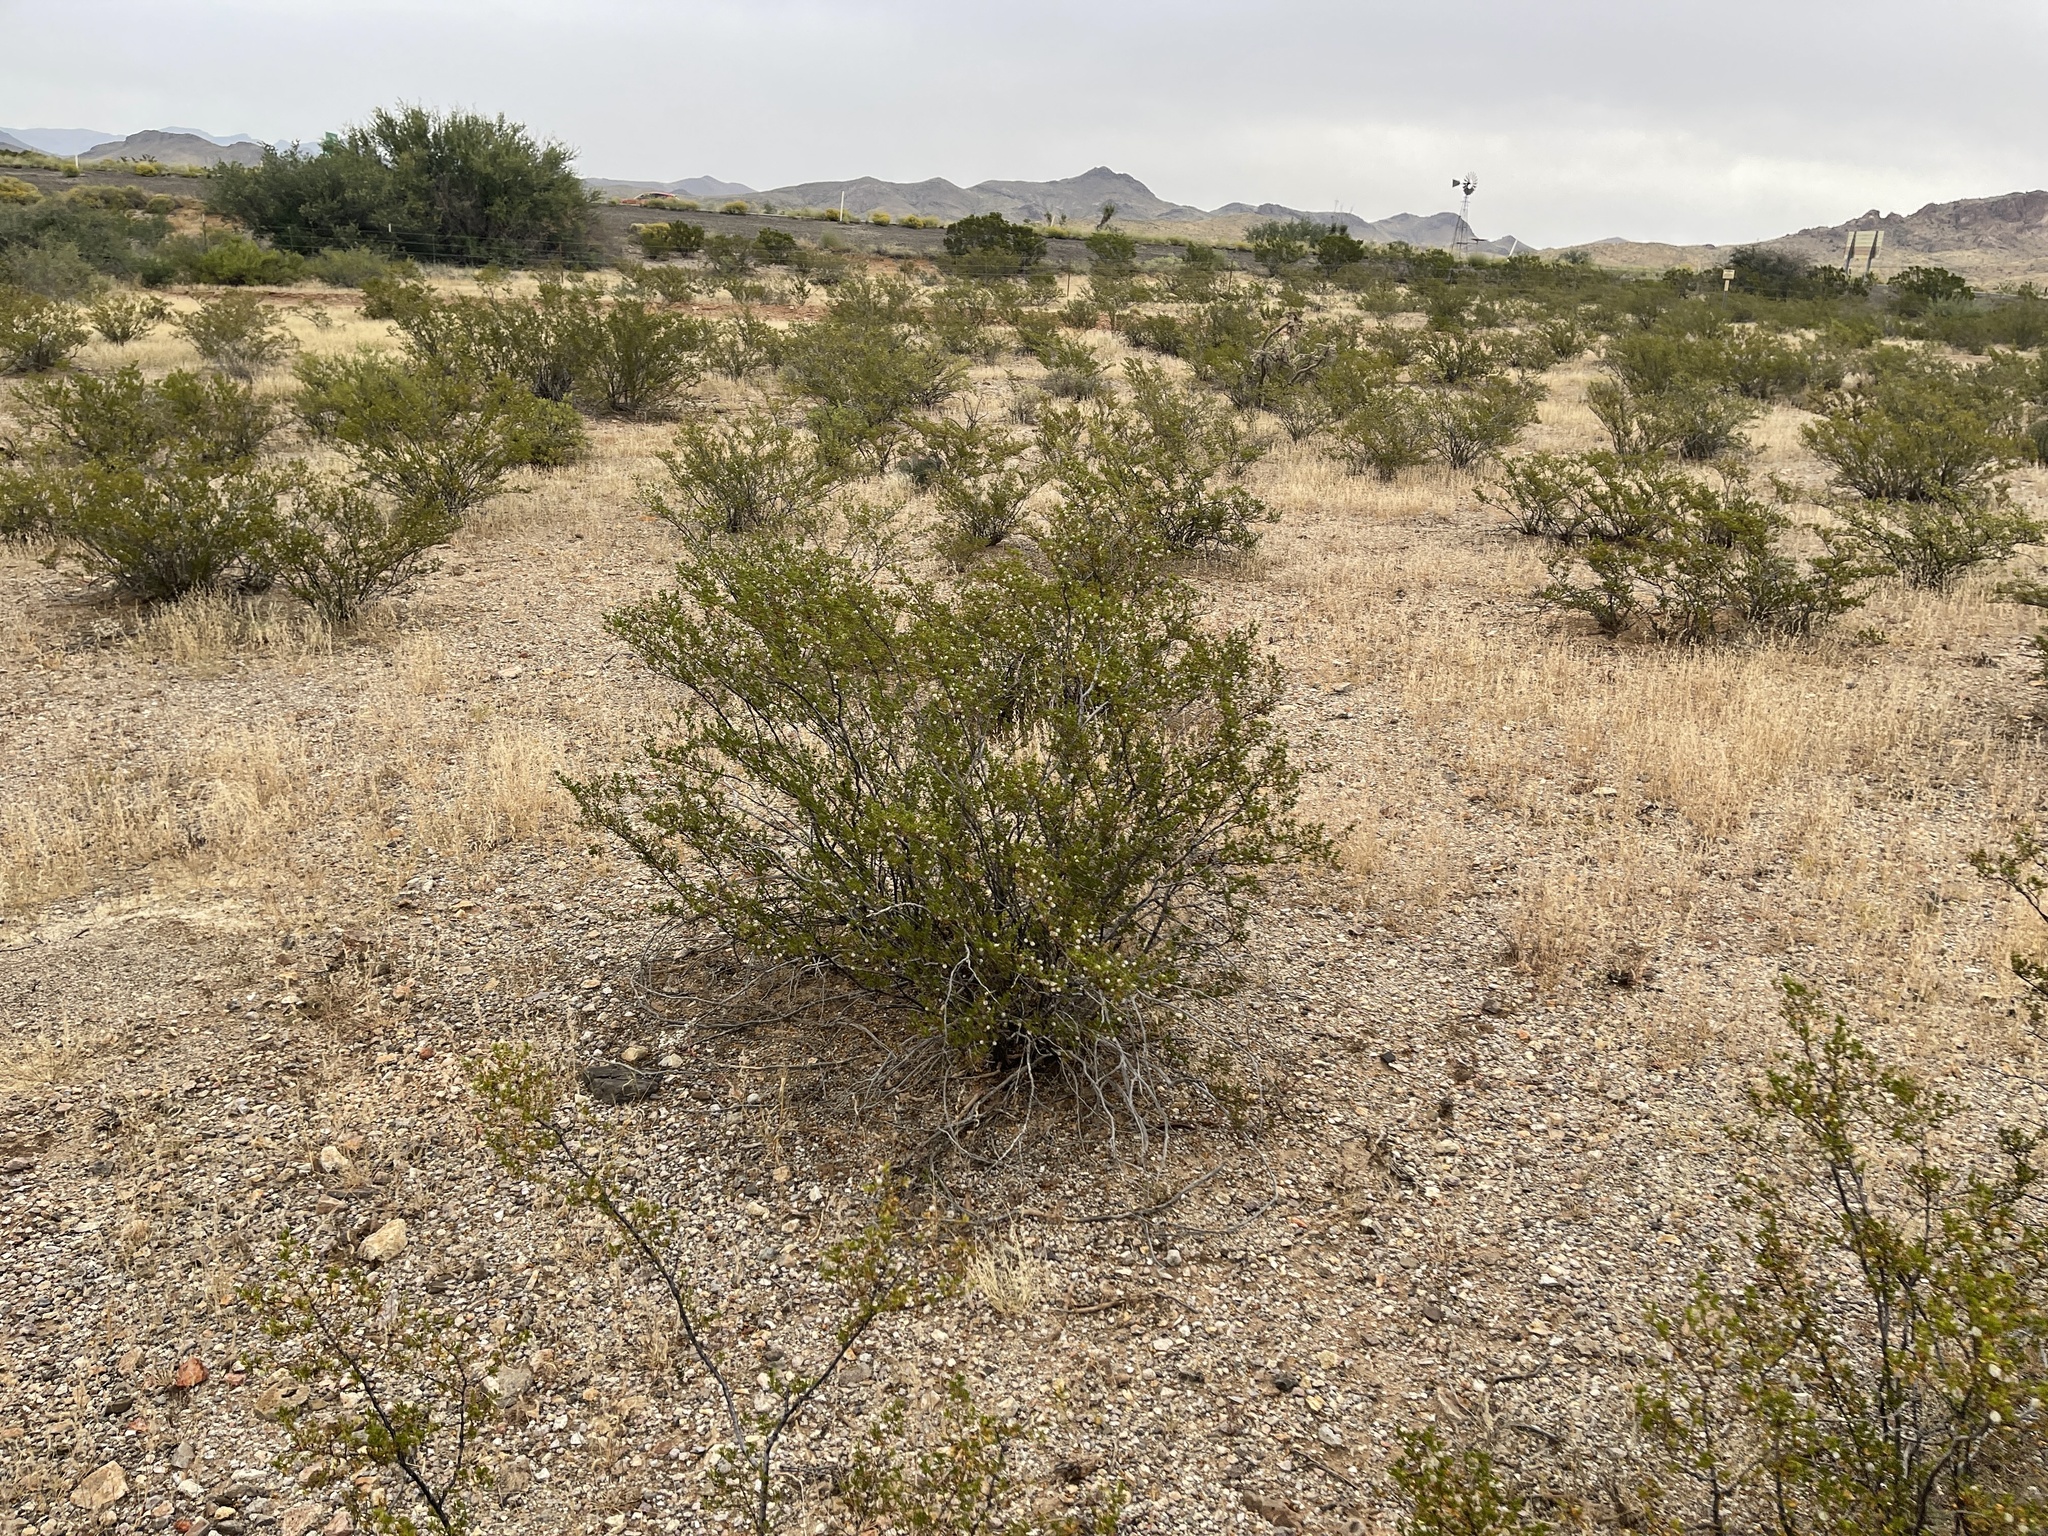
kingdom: Plantae
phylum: Tracheophyta
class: Magnoliopsida
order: Zygophyllales
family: Zygophyllaceae
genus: Larrea
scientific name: Larrea tridentata
